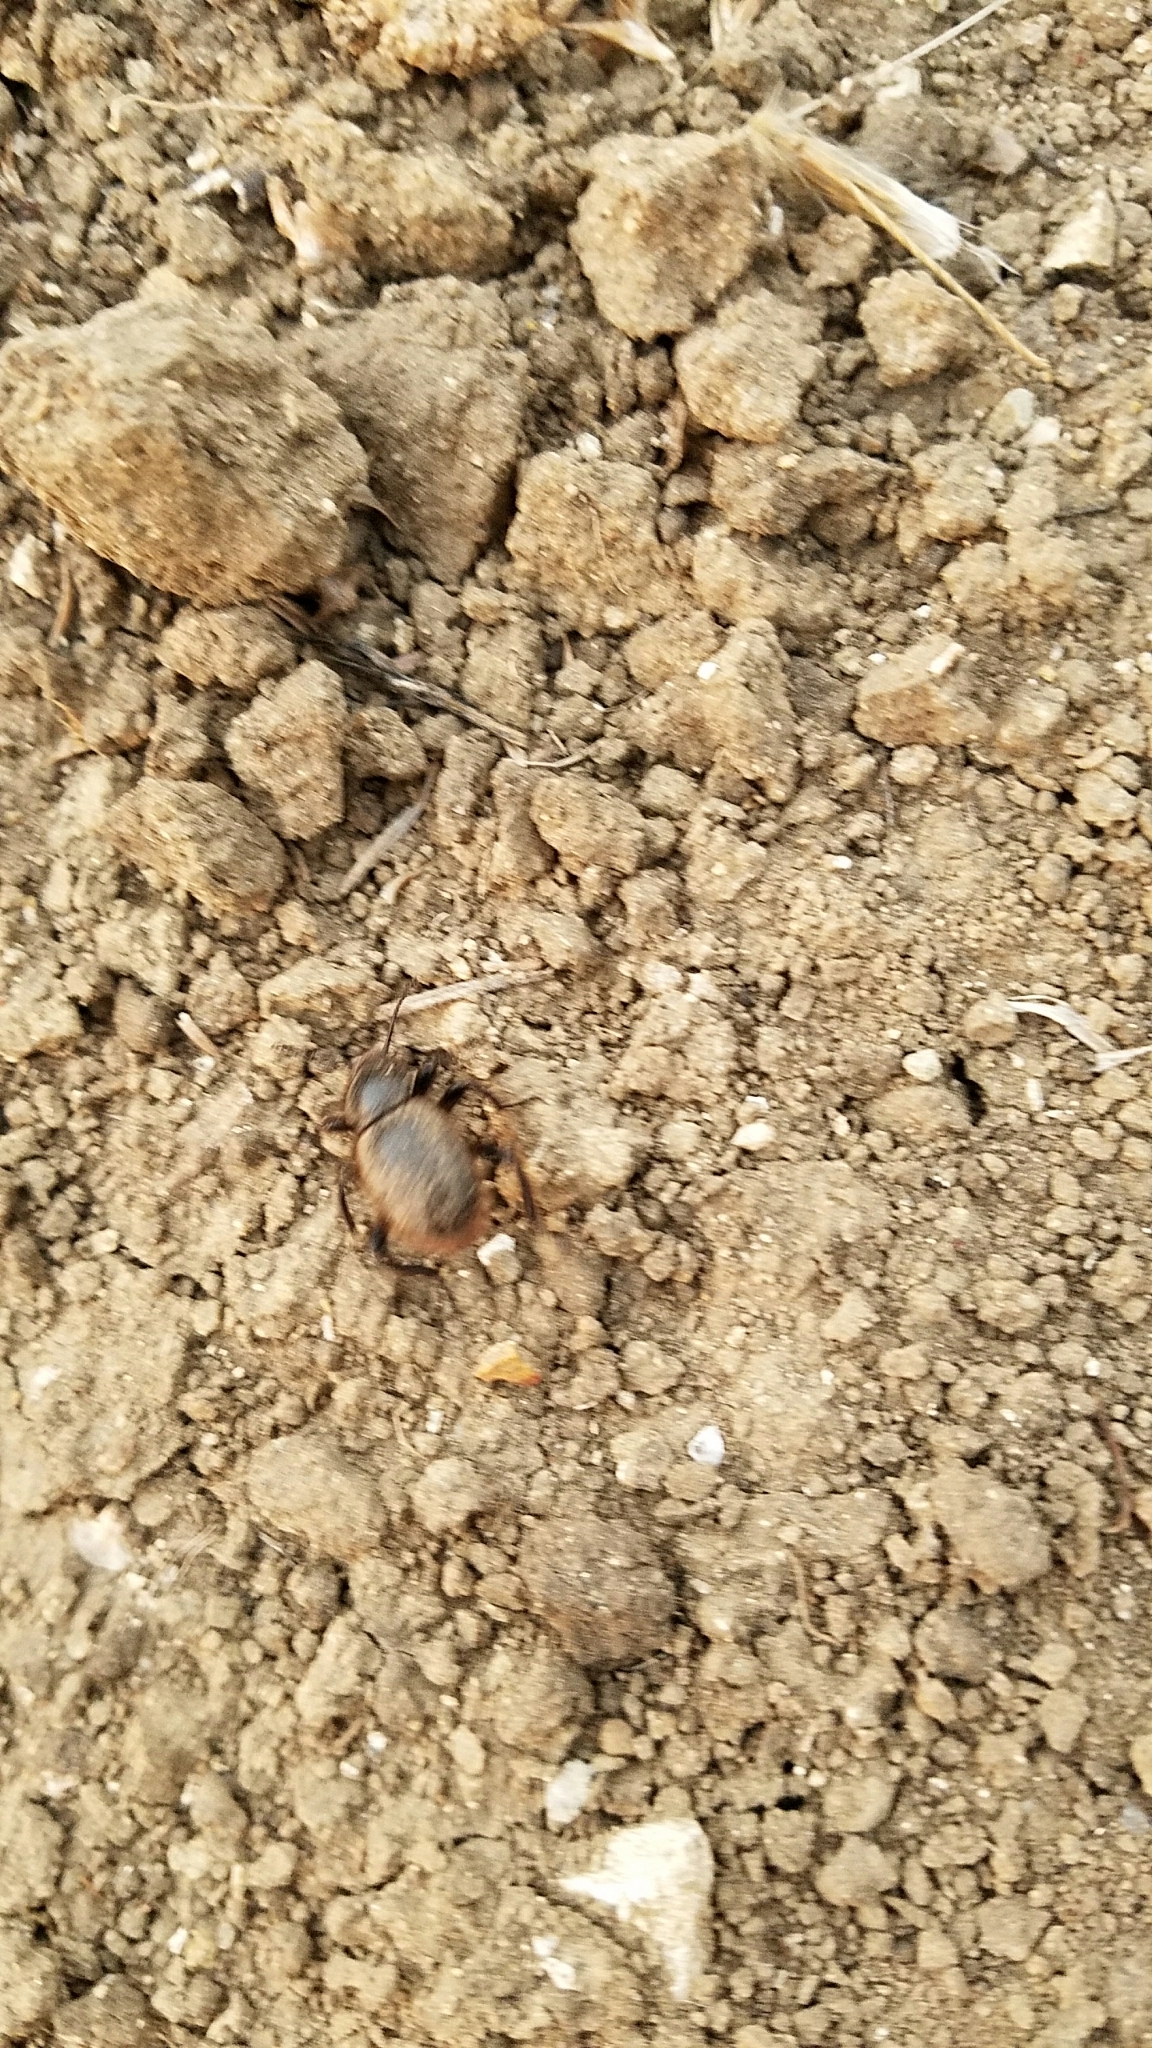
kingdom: Animalia
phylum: Arthropoda
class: Insecta
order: Coleoptera
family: Tenebrionidae
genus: Eleodes
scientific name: Eleodes osculans
